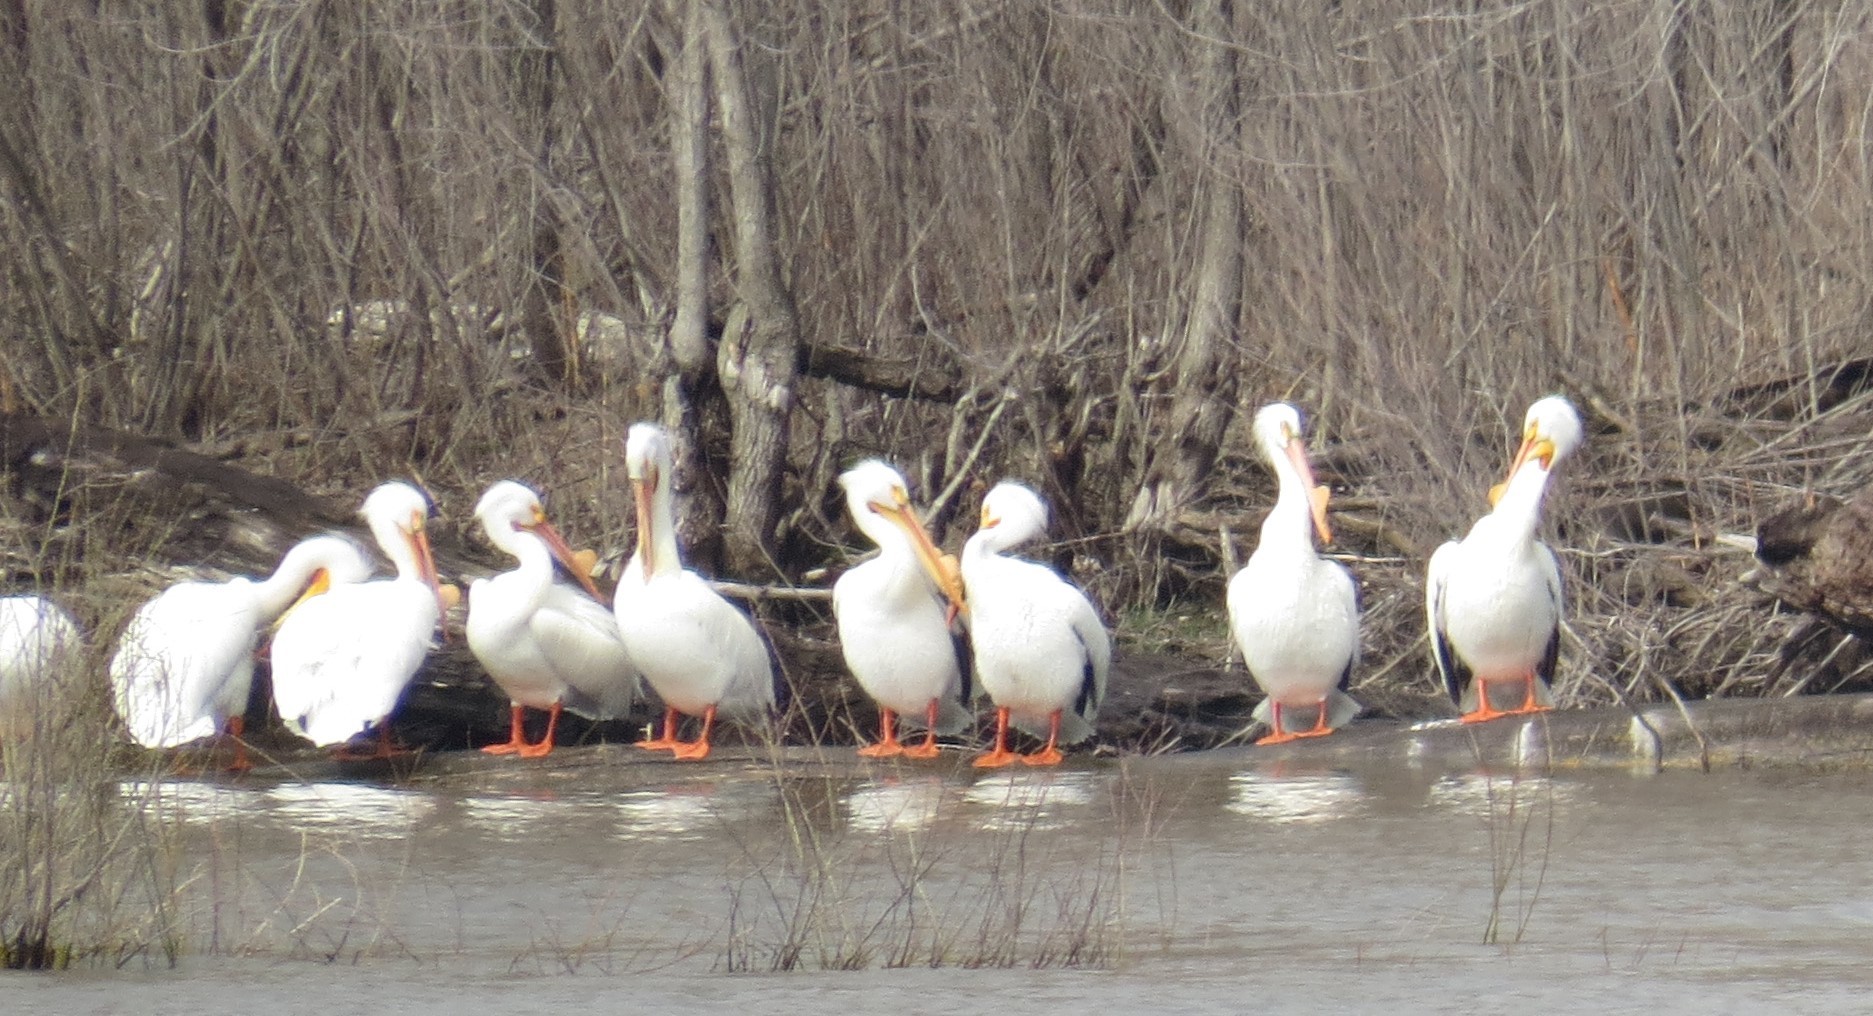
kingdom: Animalia
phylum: Chordata
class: Aves
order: Pelecaniformes
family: Pelecanidae
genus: Pelecanus
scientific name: Pelecanus erythrorhynchos
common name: American white pelican
